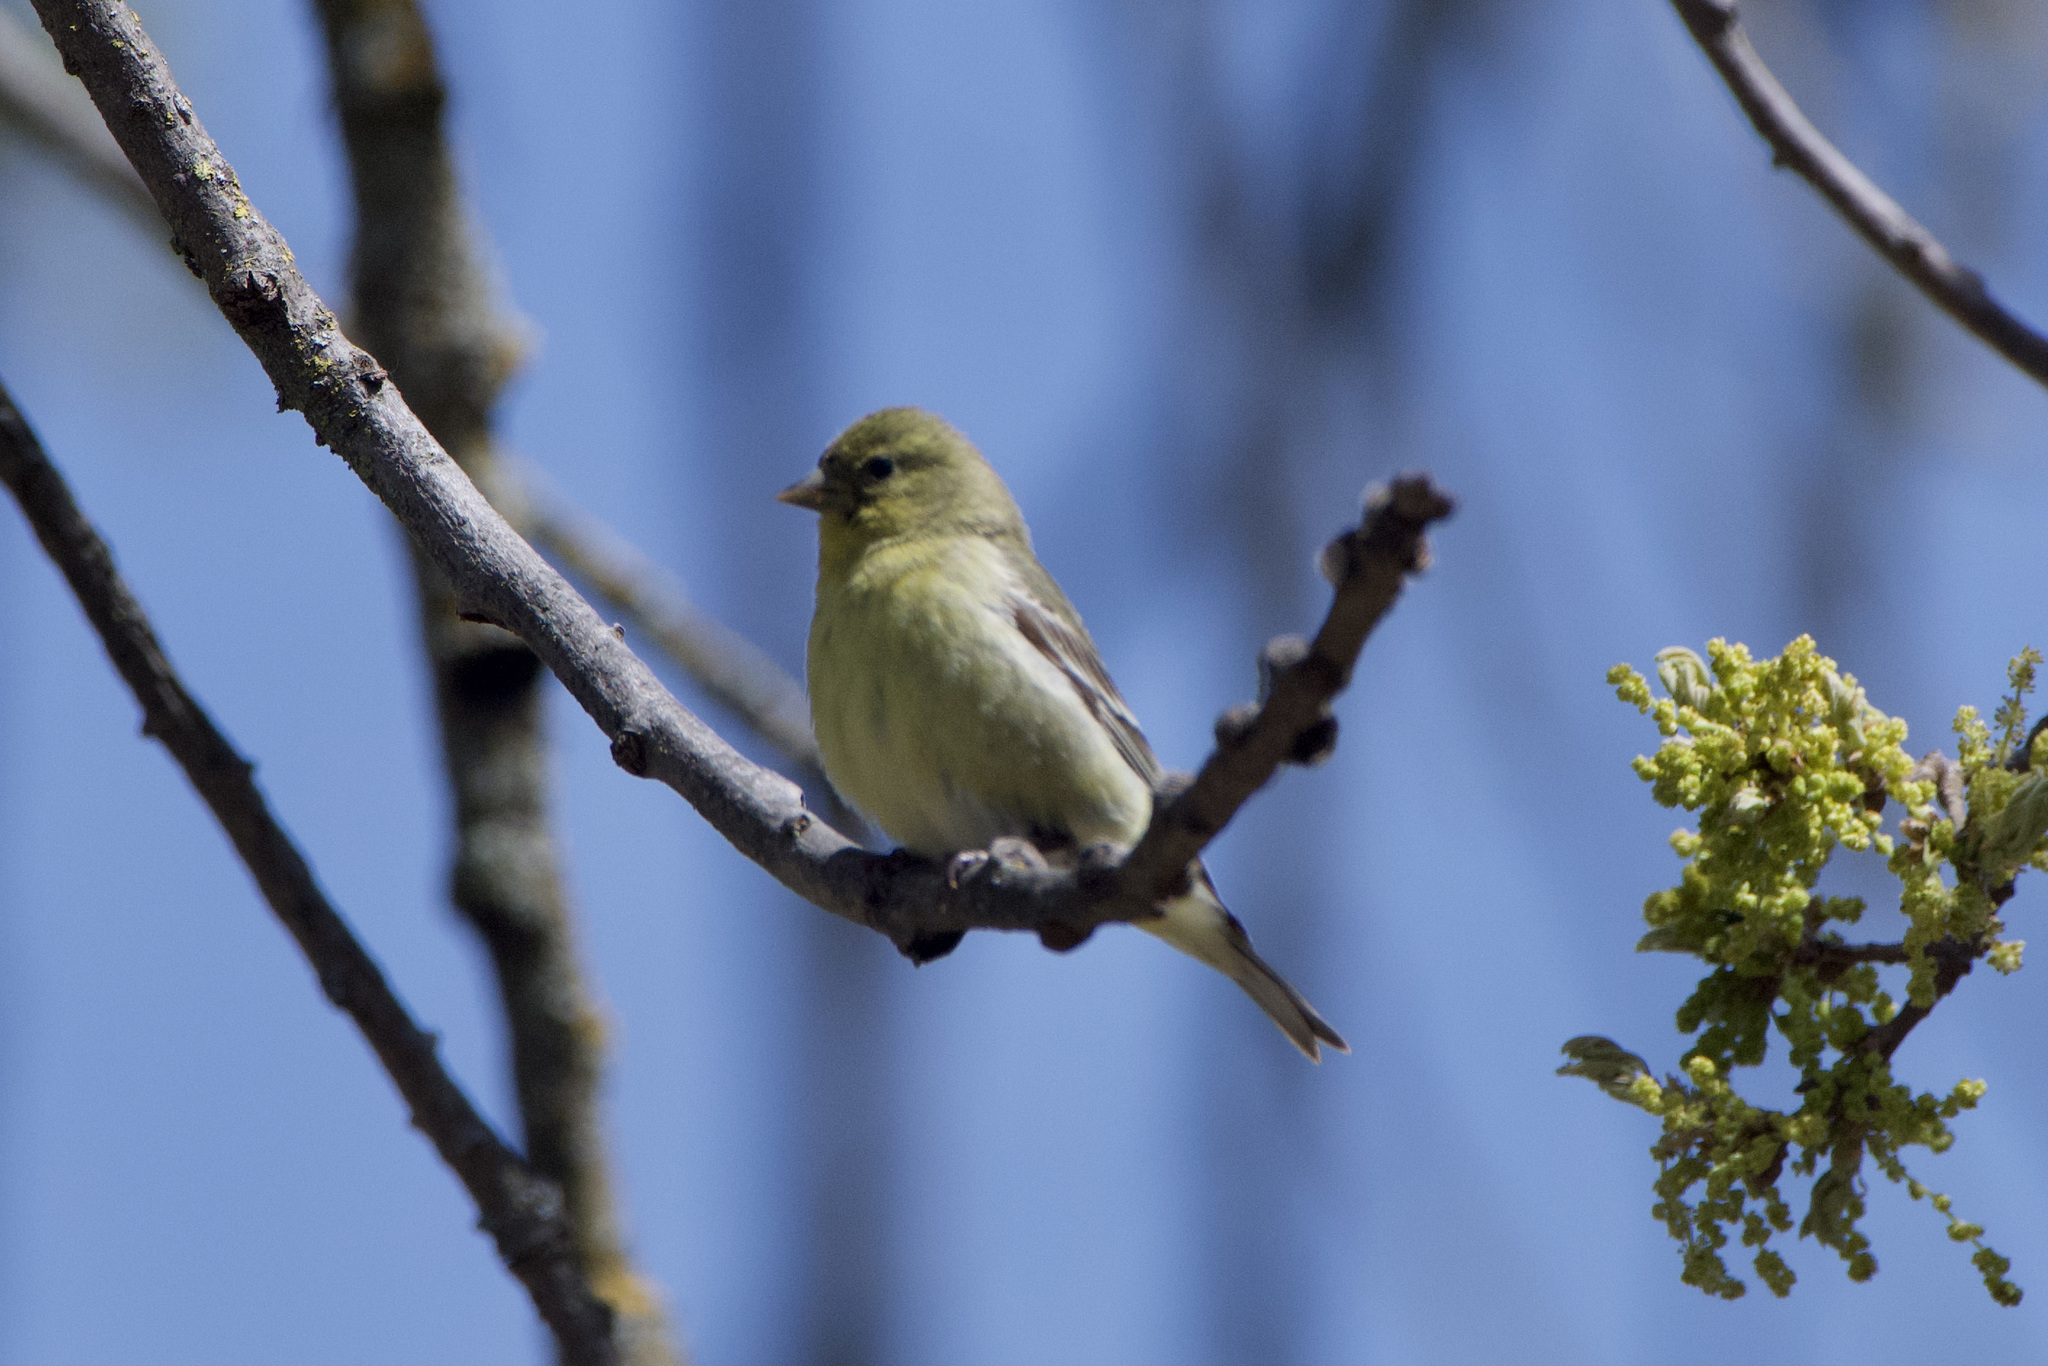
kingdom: Animalia
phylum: Chordata
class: Aves
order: Passeriformes
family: Fringillidae
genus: Spinus
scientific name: Spinus tristis
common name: American goldfinch
